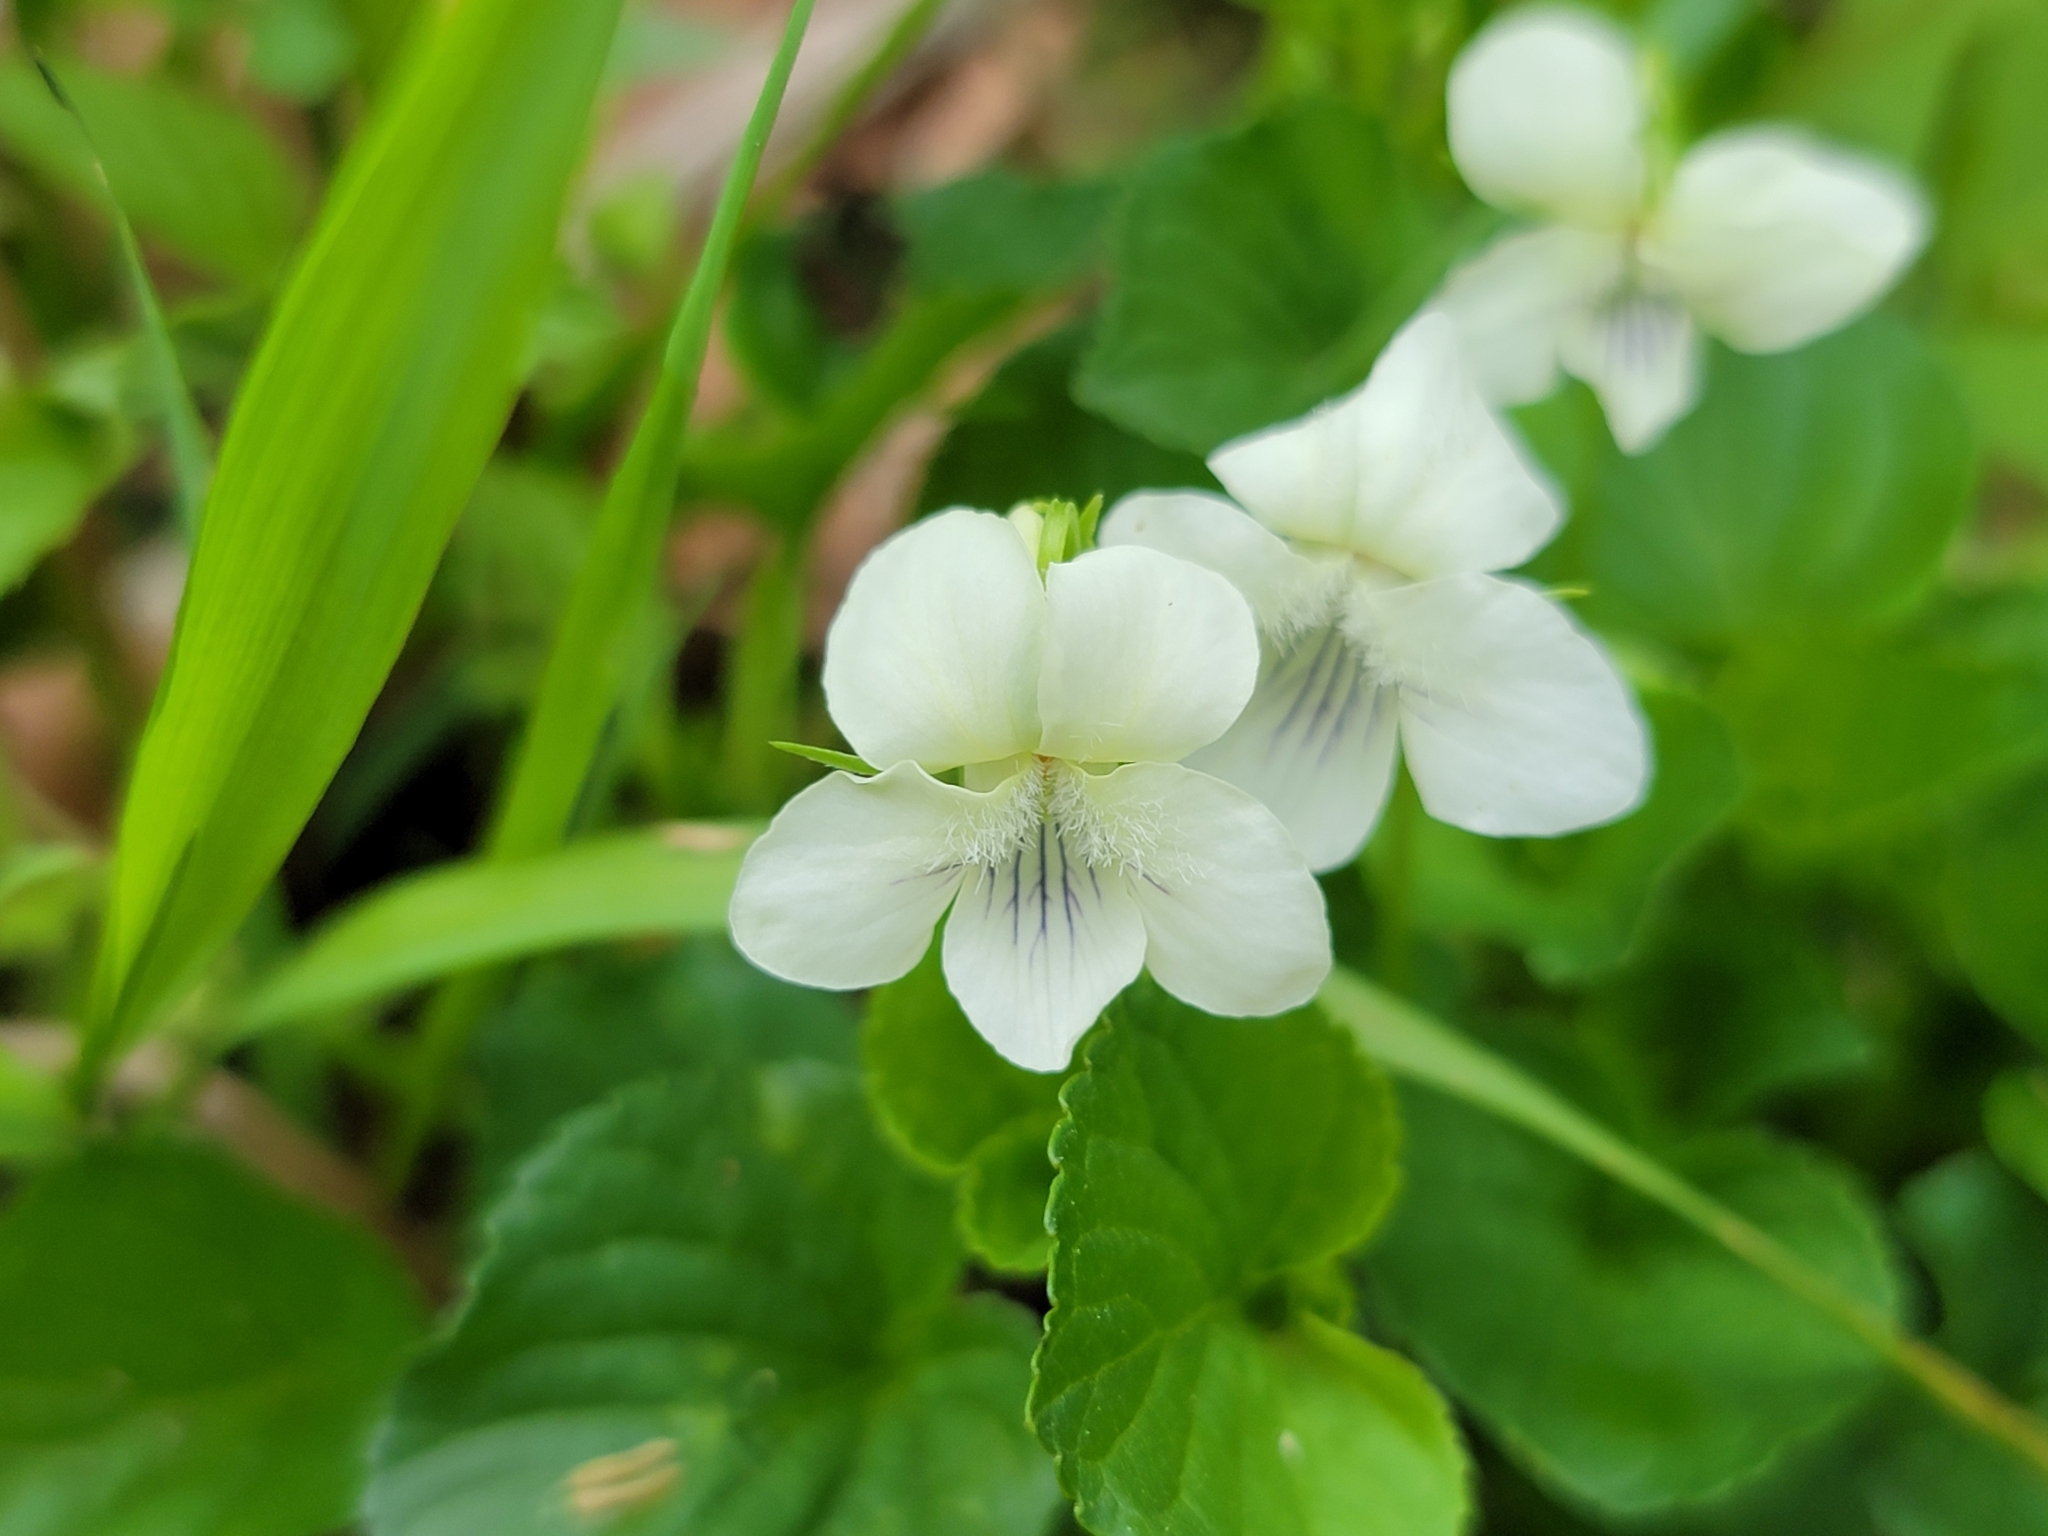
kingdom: Plantae
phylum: Tracheophyta
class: Magnoliopsida
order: Malpighiales
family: Violaceae
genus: Viola
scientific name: Viola striata
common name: Cream violet
